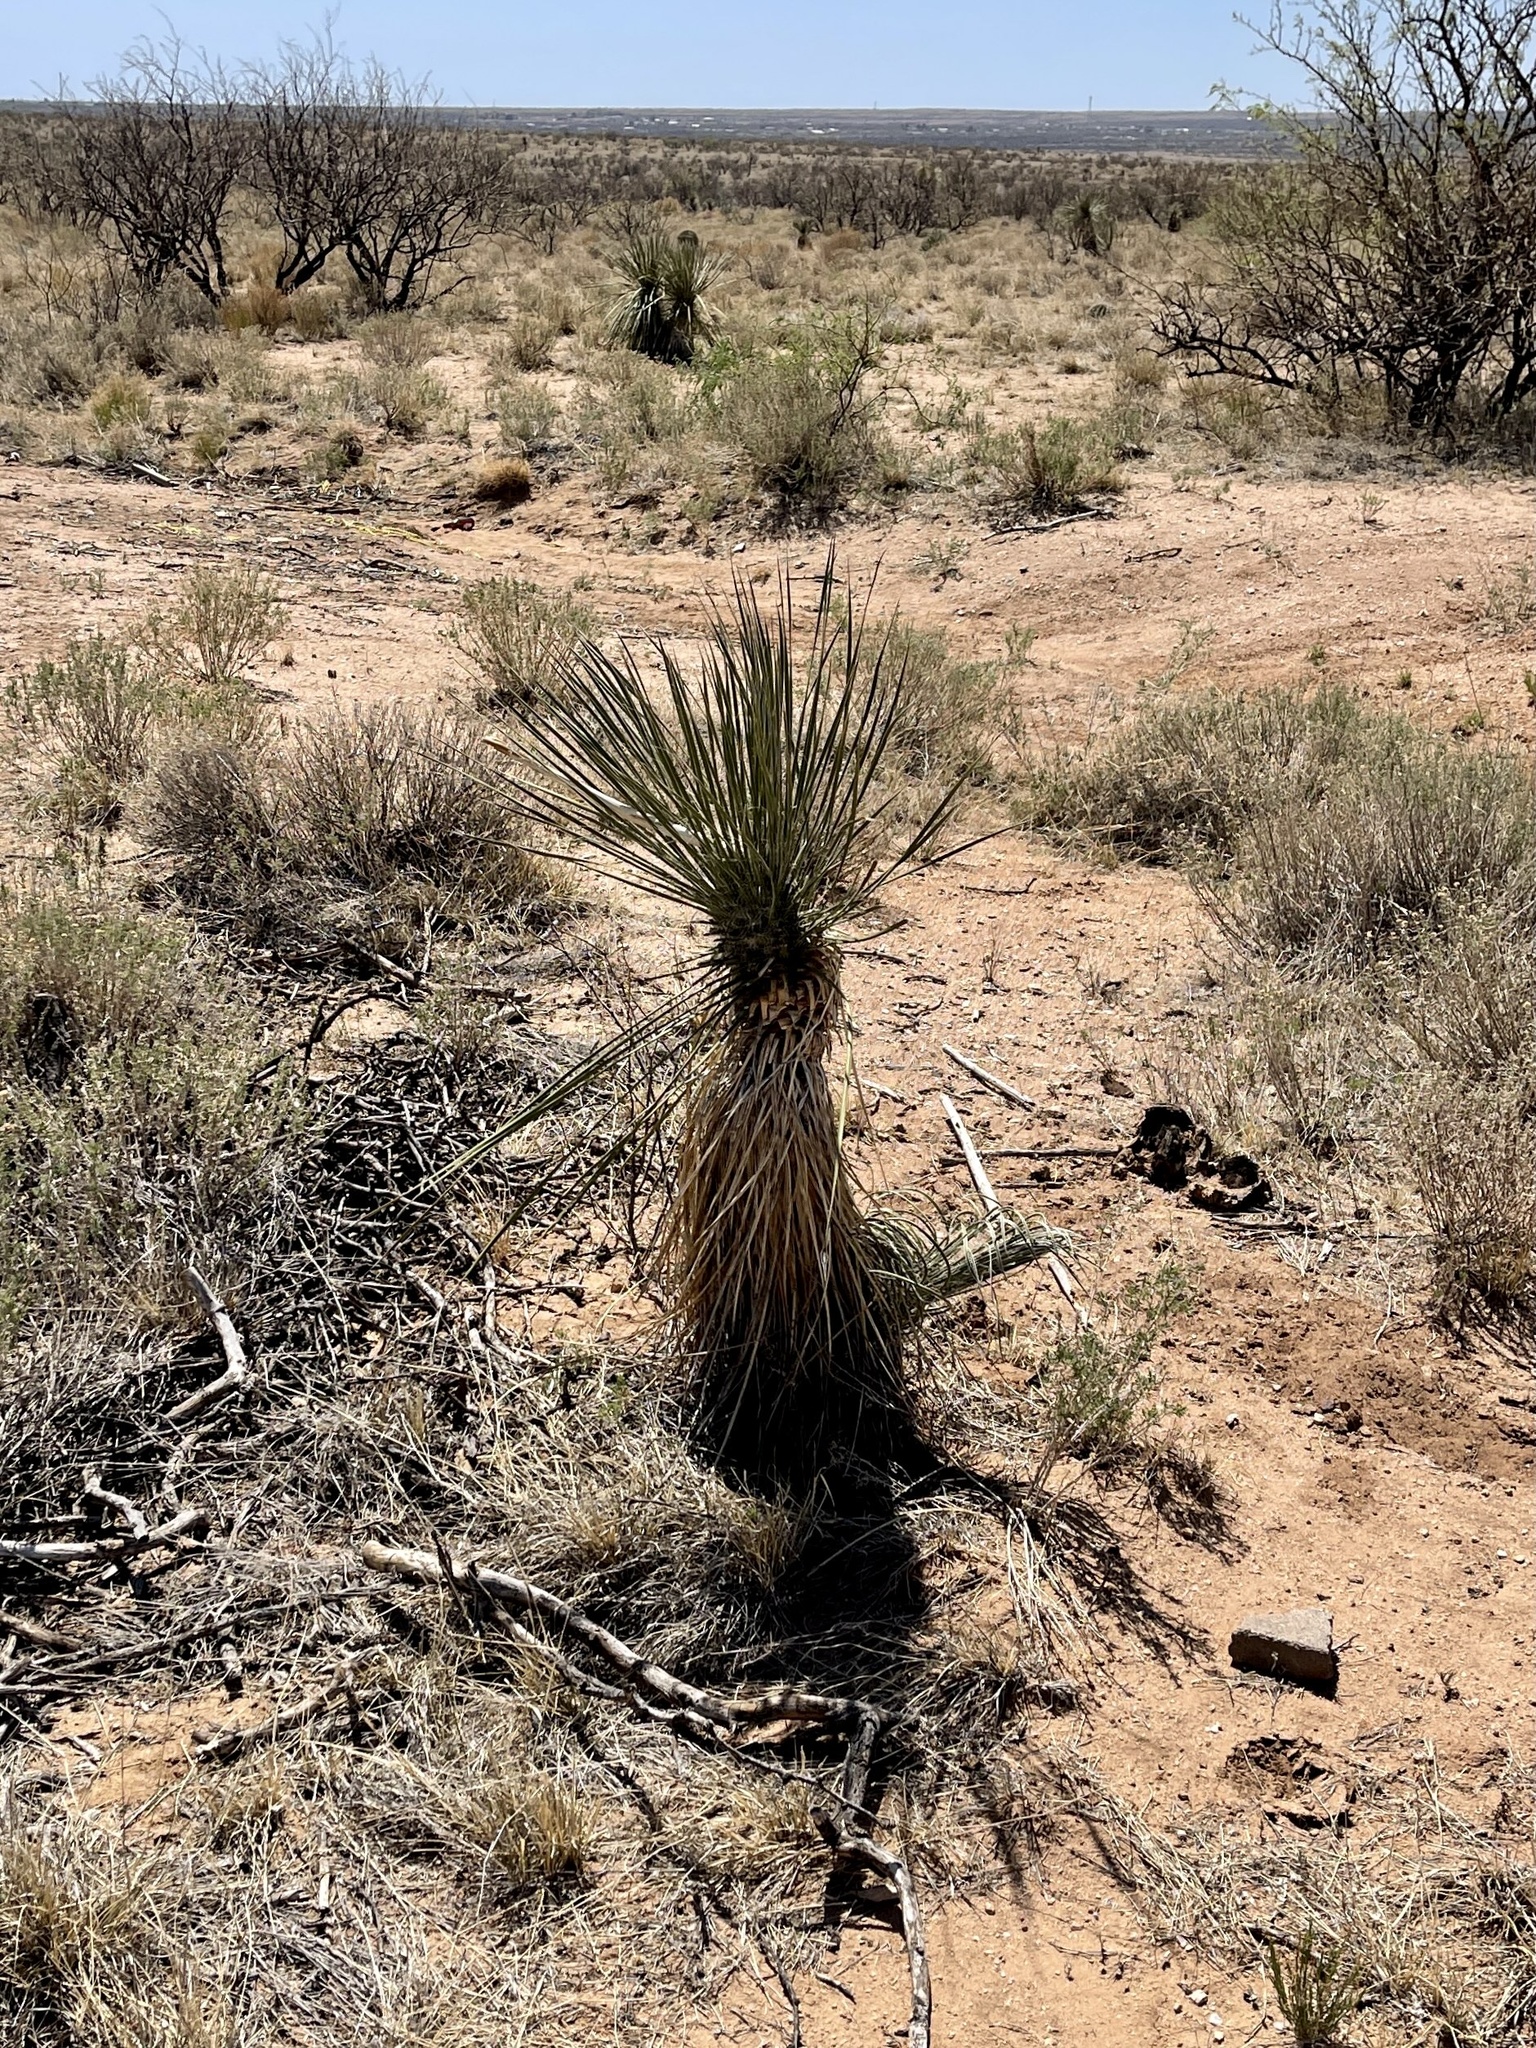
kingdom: Plantae
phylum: Tracheophyta
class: Liliopsida
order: Asparagales
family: Asparagaceae
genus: Yucca
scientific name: Yucca elata
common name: Palmella
